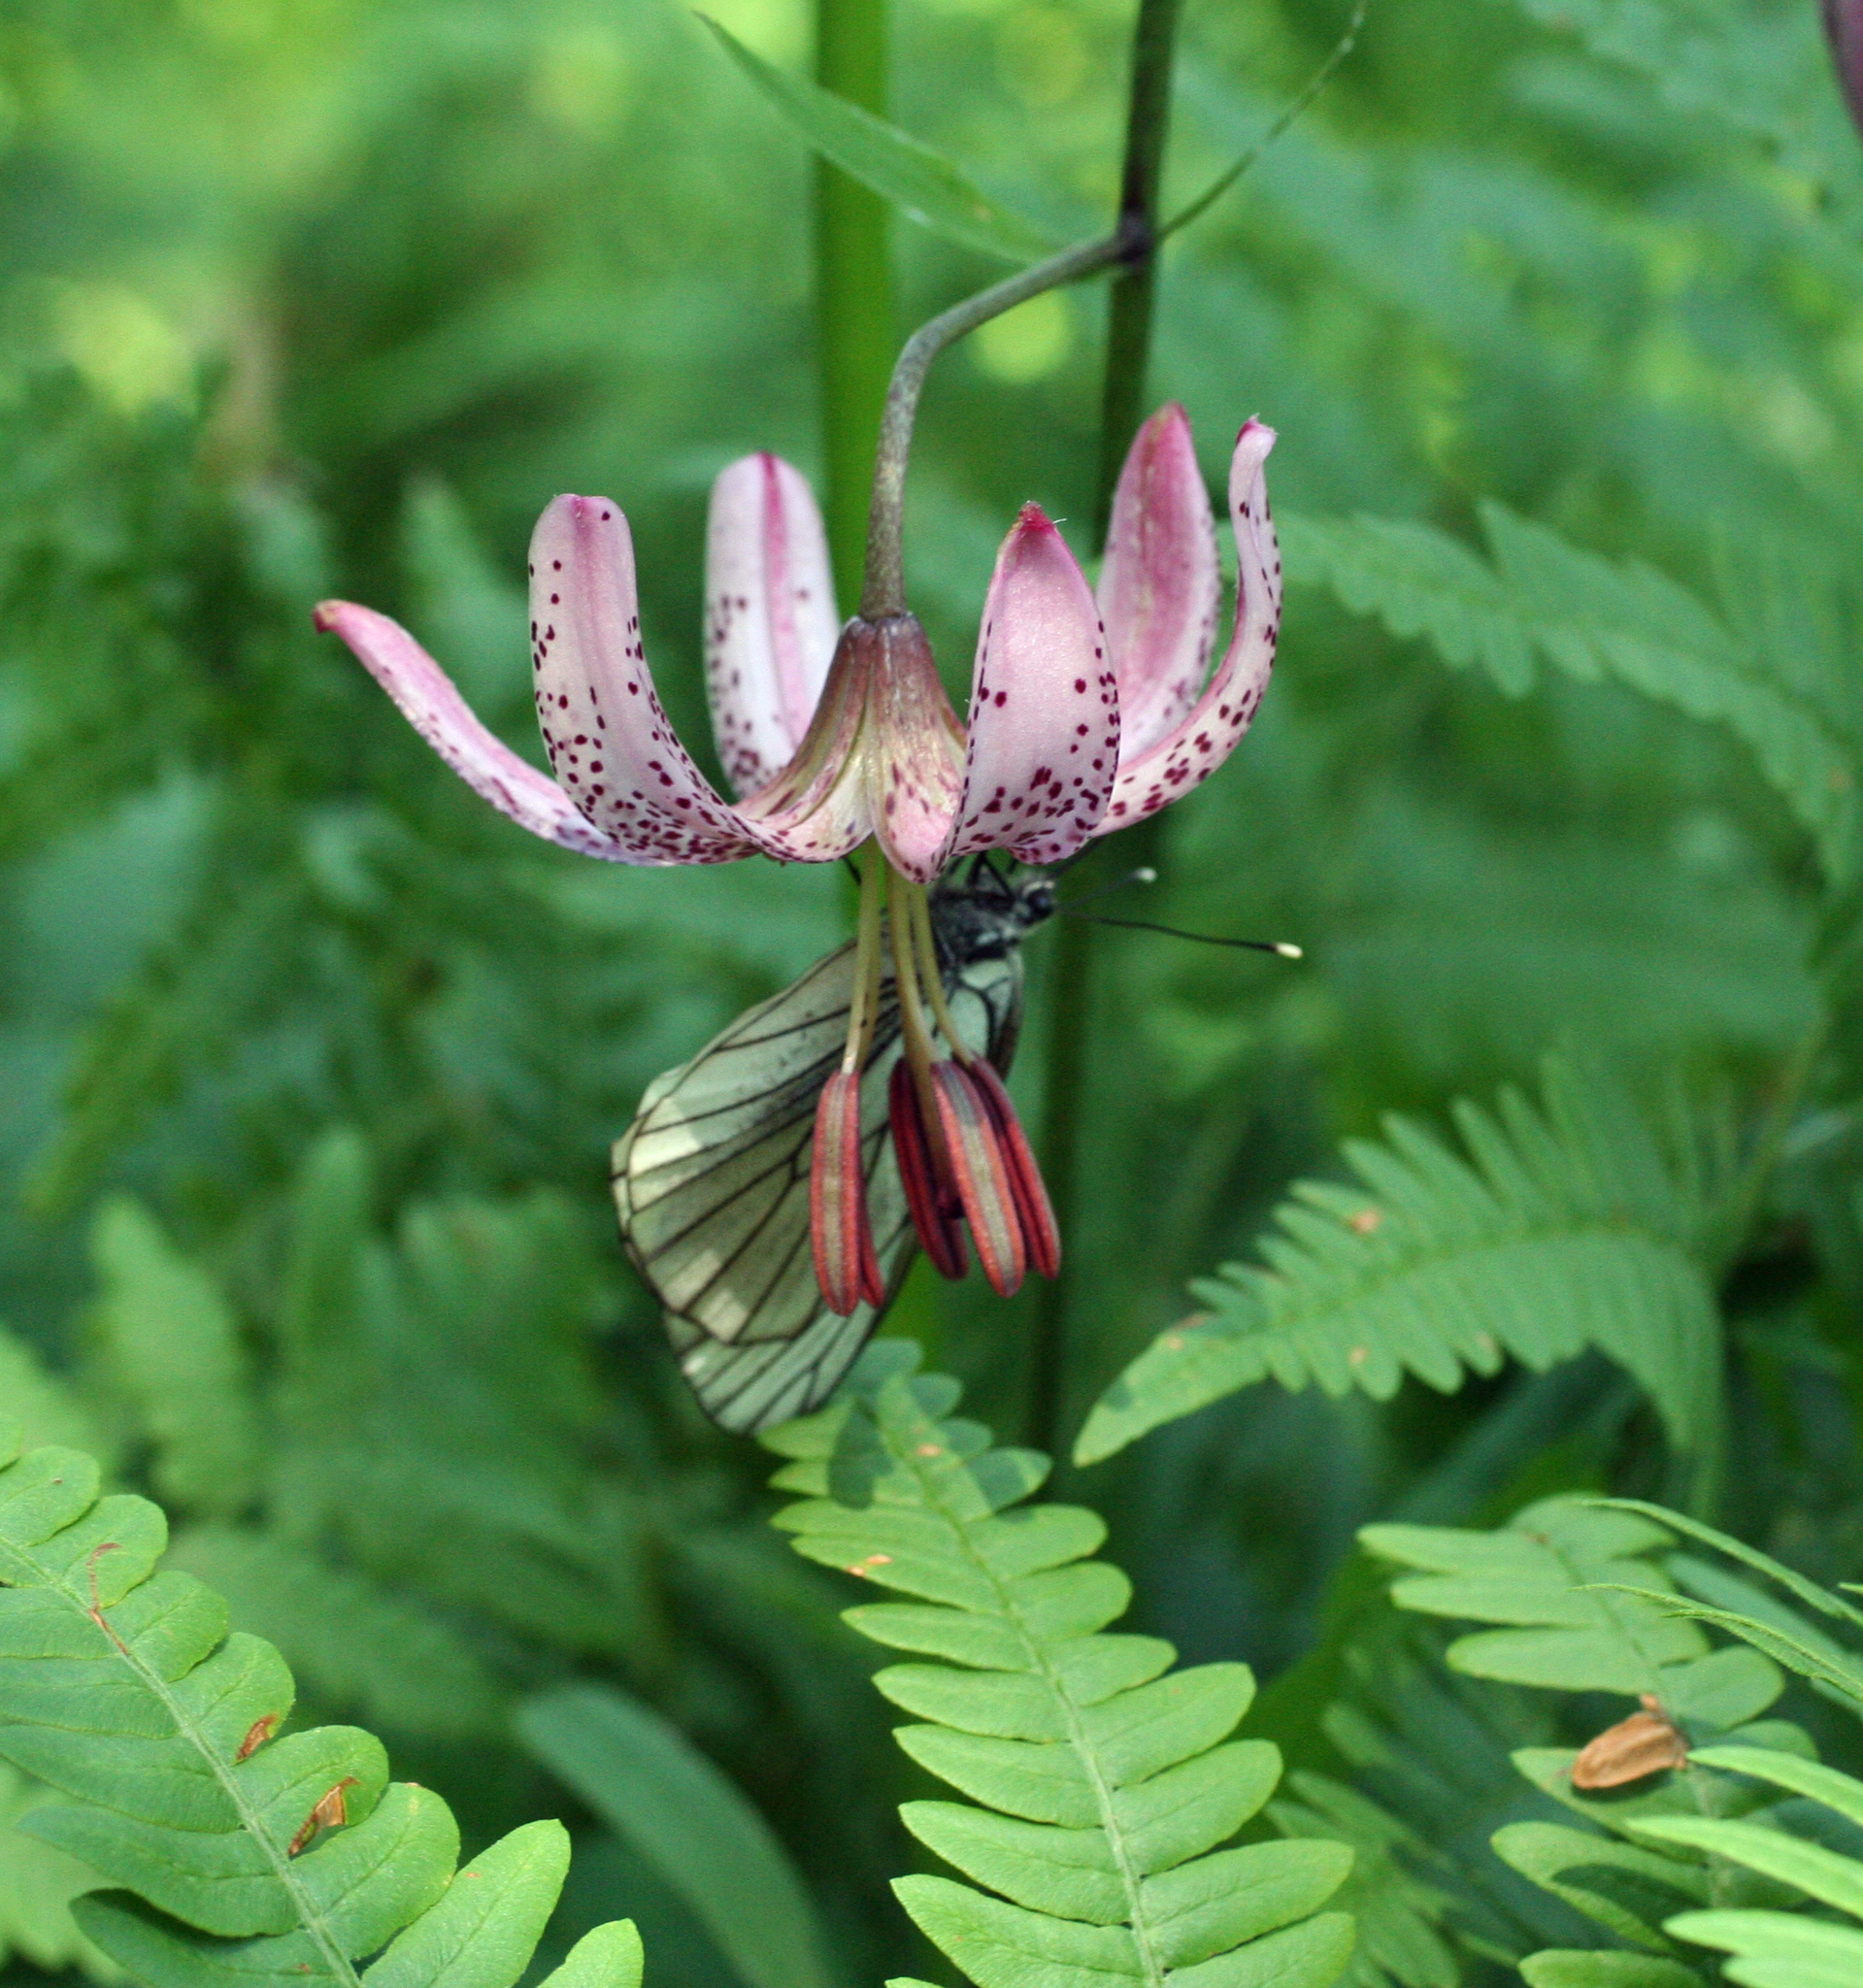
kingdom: Plantae
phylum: Tracheophyta
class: Liliopsida
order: Liliales
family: Liliaceae
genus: Lilium
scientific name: Lilium martagon
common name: Martagon lily
